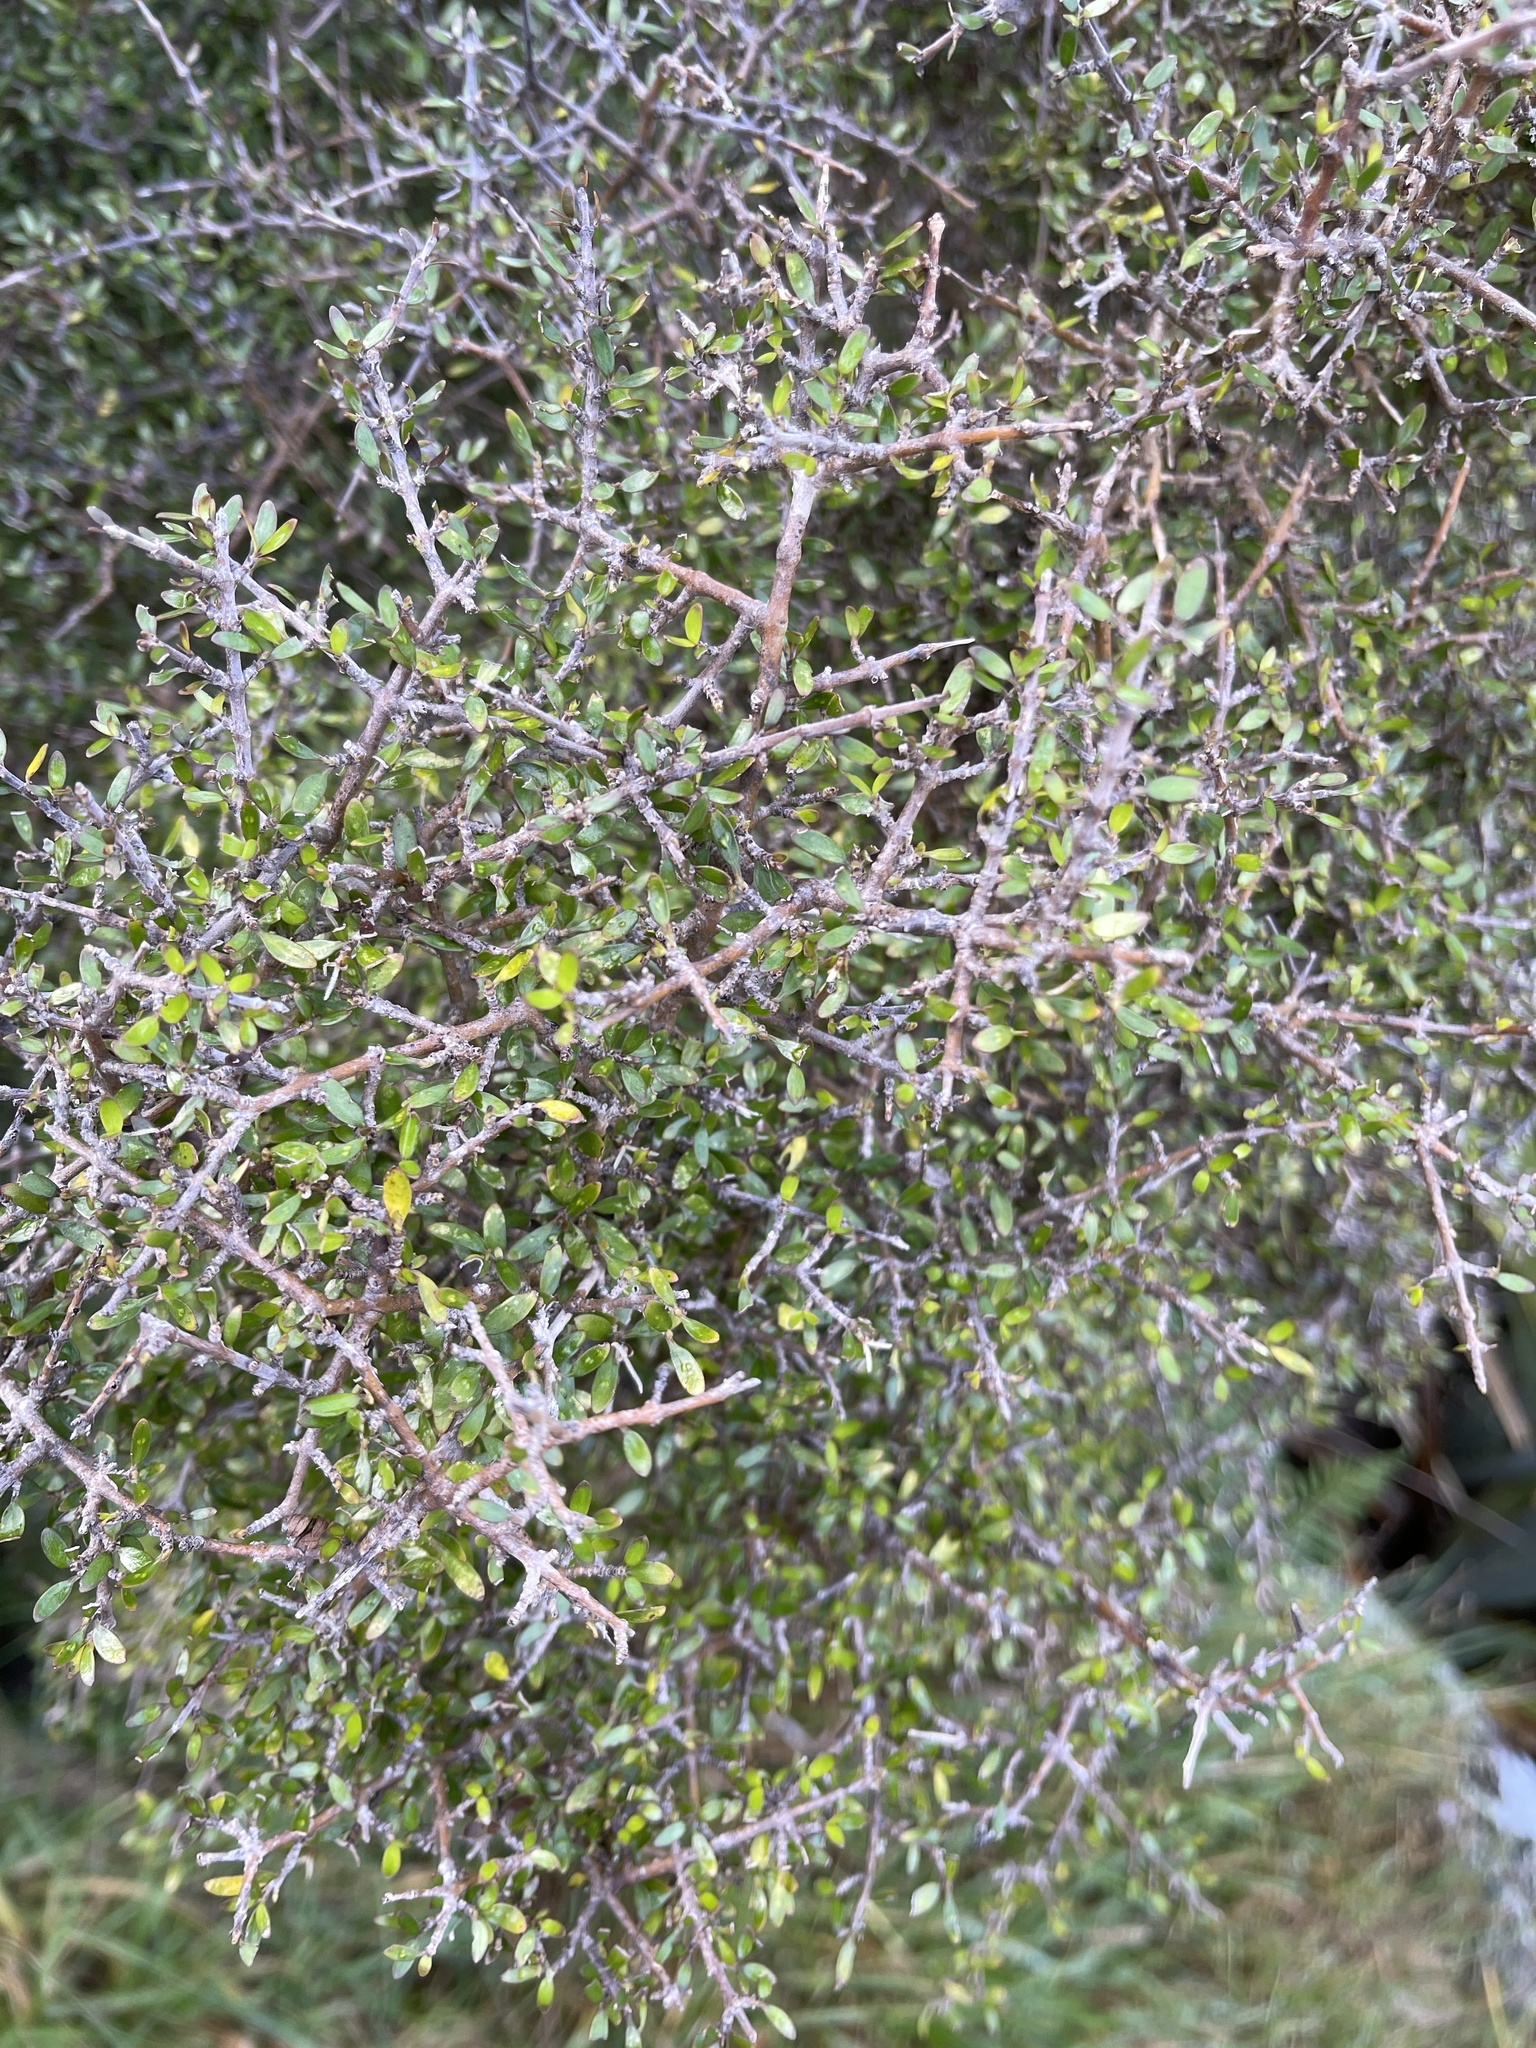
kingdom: Plantae
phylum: Tracheophyta
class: Magnoliopsida
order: Gentianales
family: Rubiaceae
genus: Coprosma
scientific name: Coprosma propinqua
